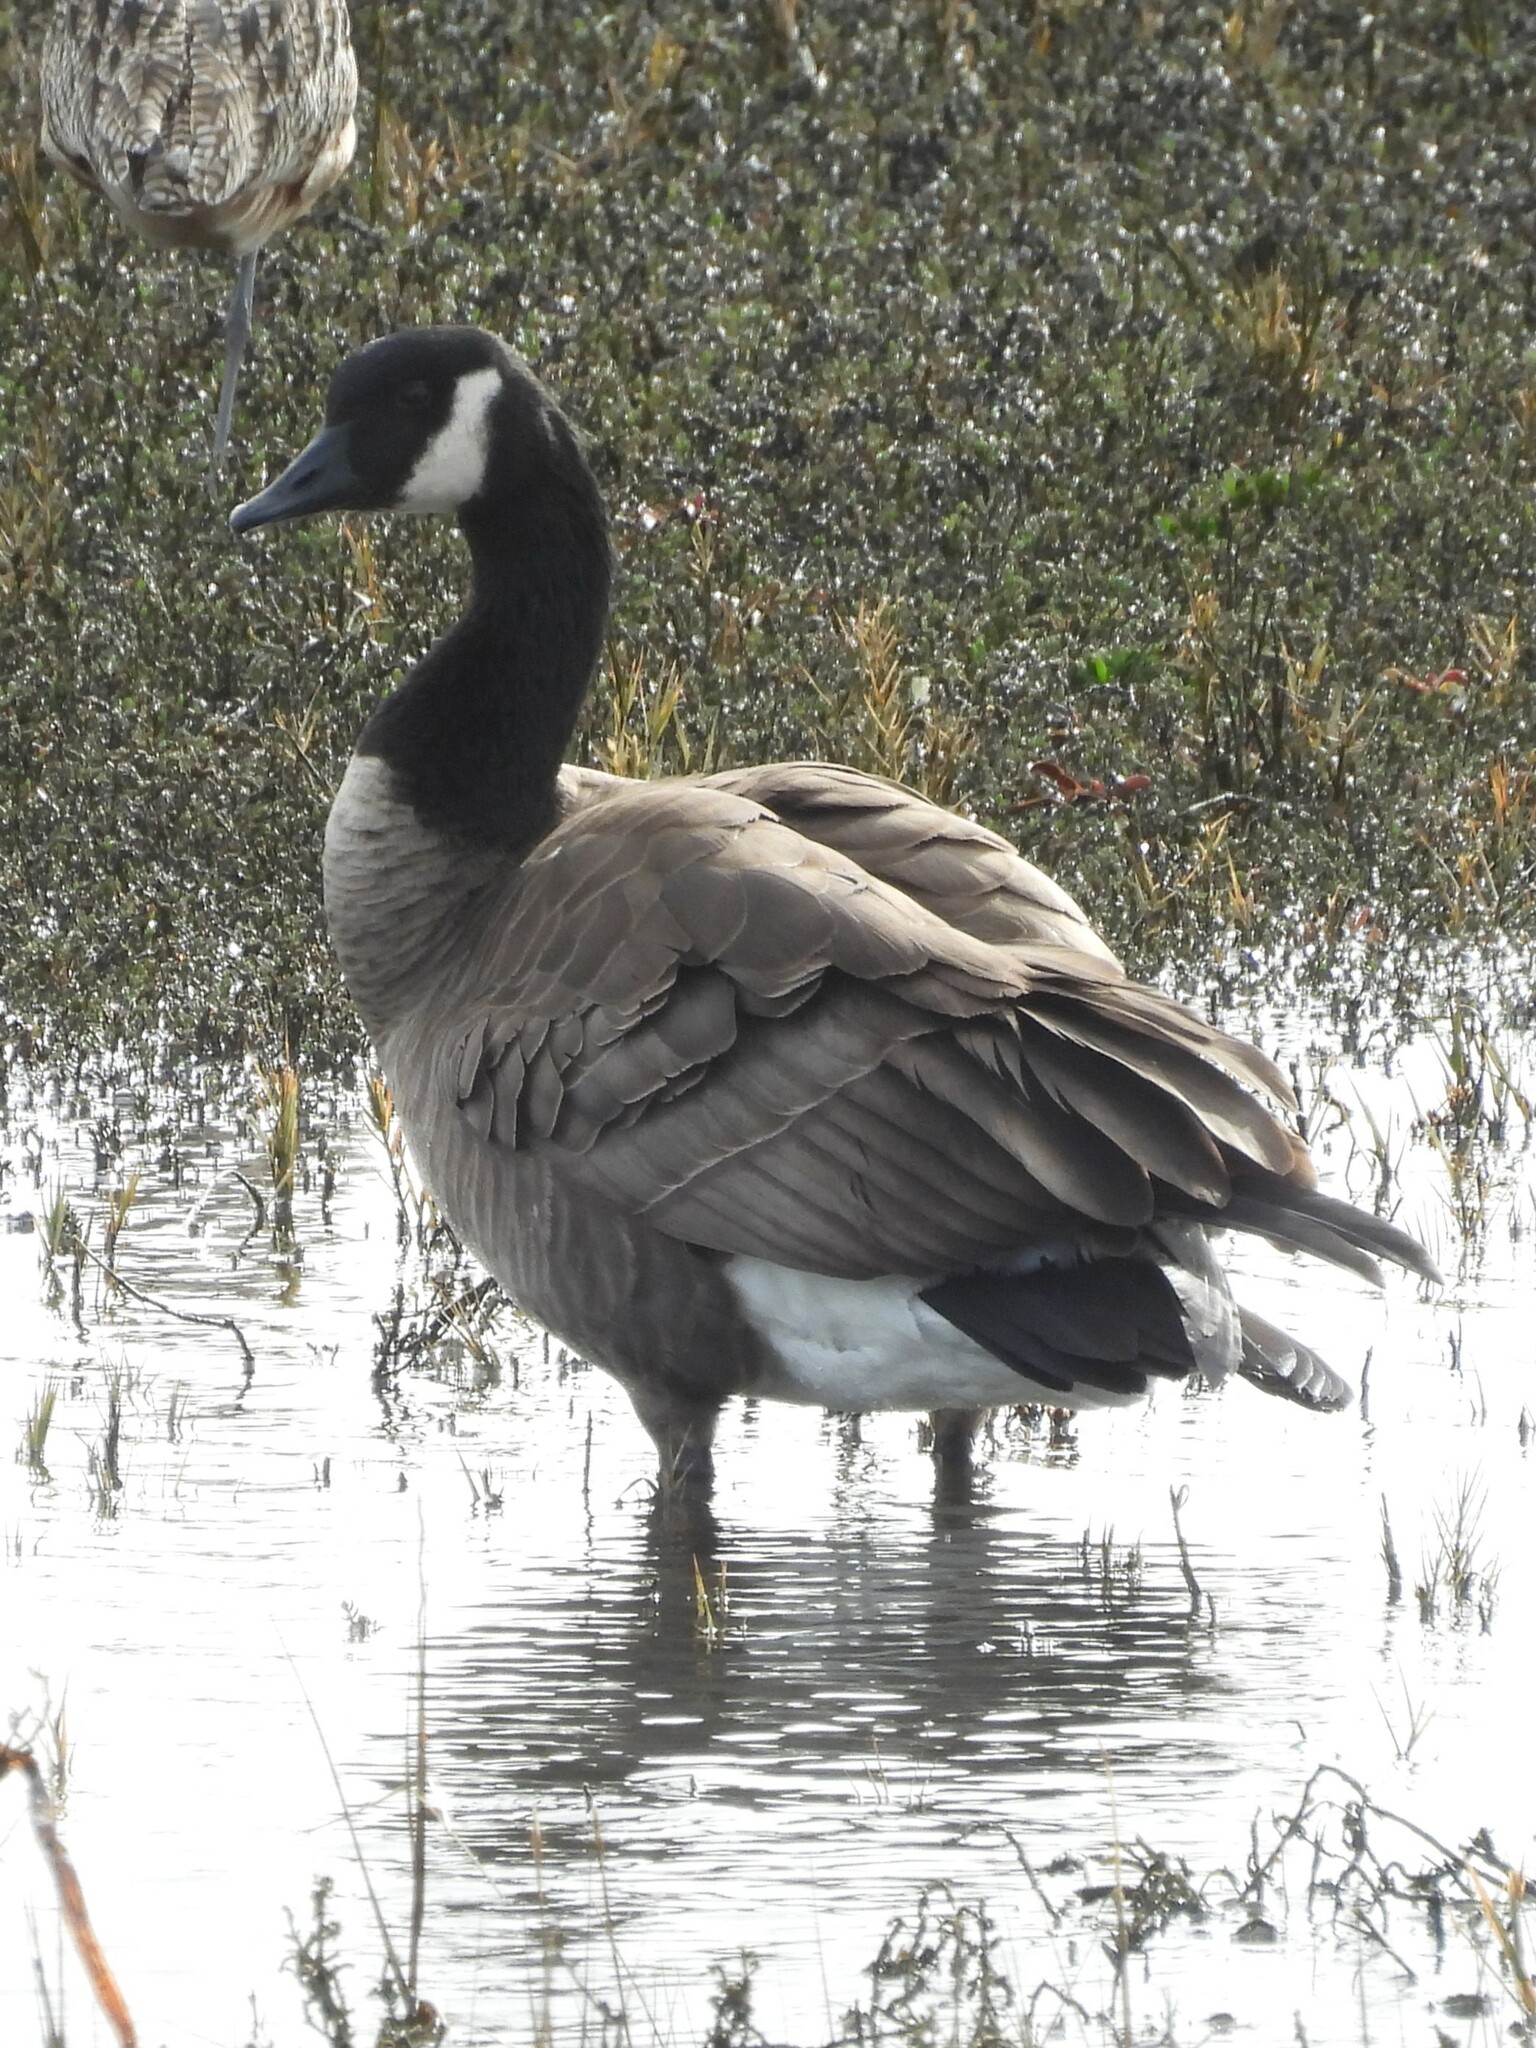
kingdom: Animalia
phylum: Chordata
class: Aves
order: Anseriformes
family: Anatidae
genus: Branta
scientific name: Branta canadensis
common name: Canada goose
